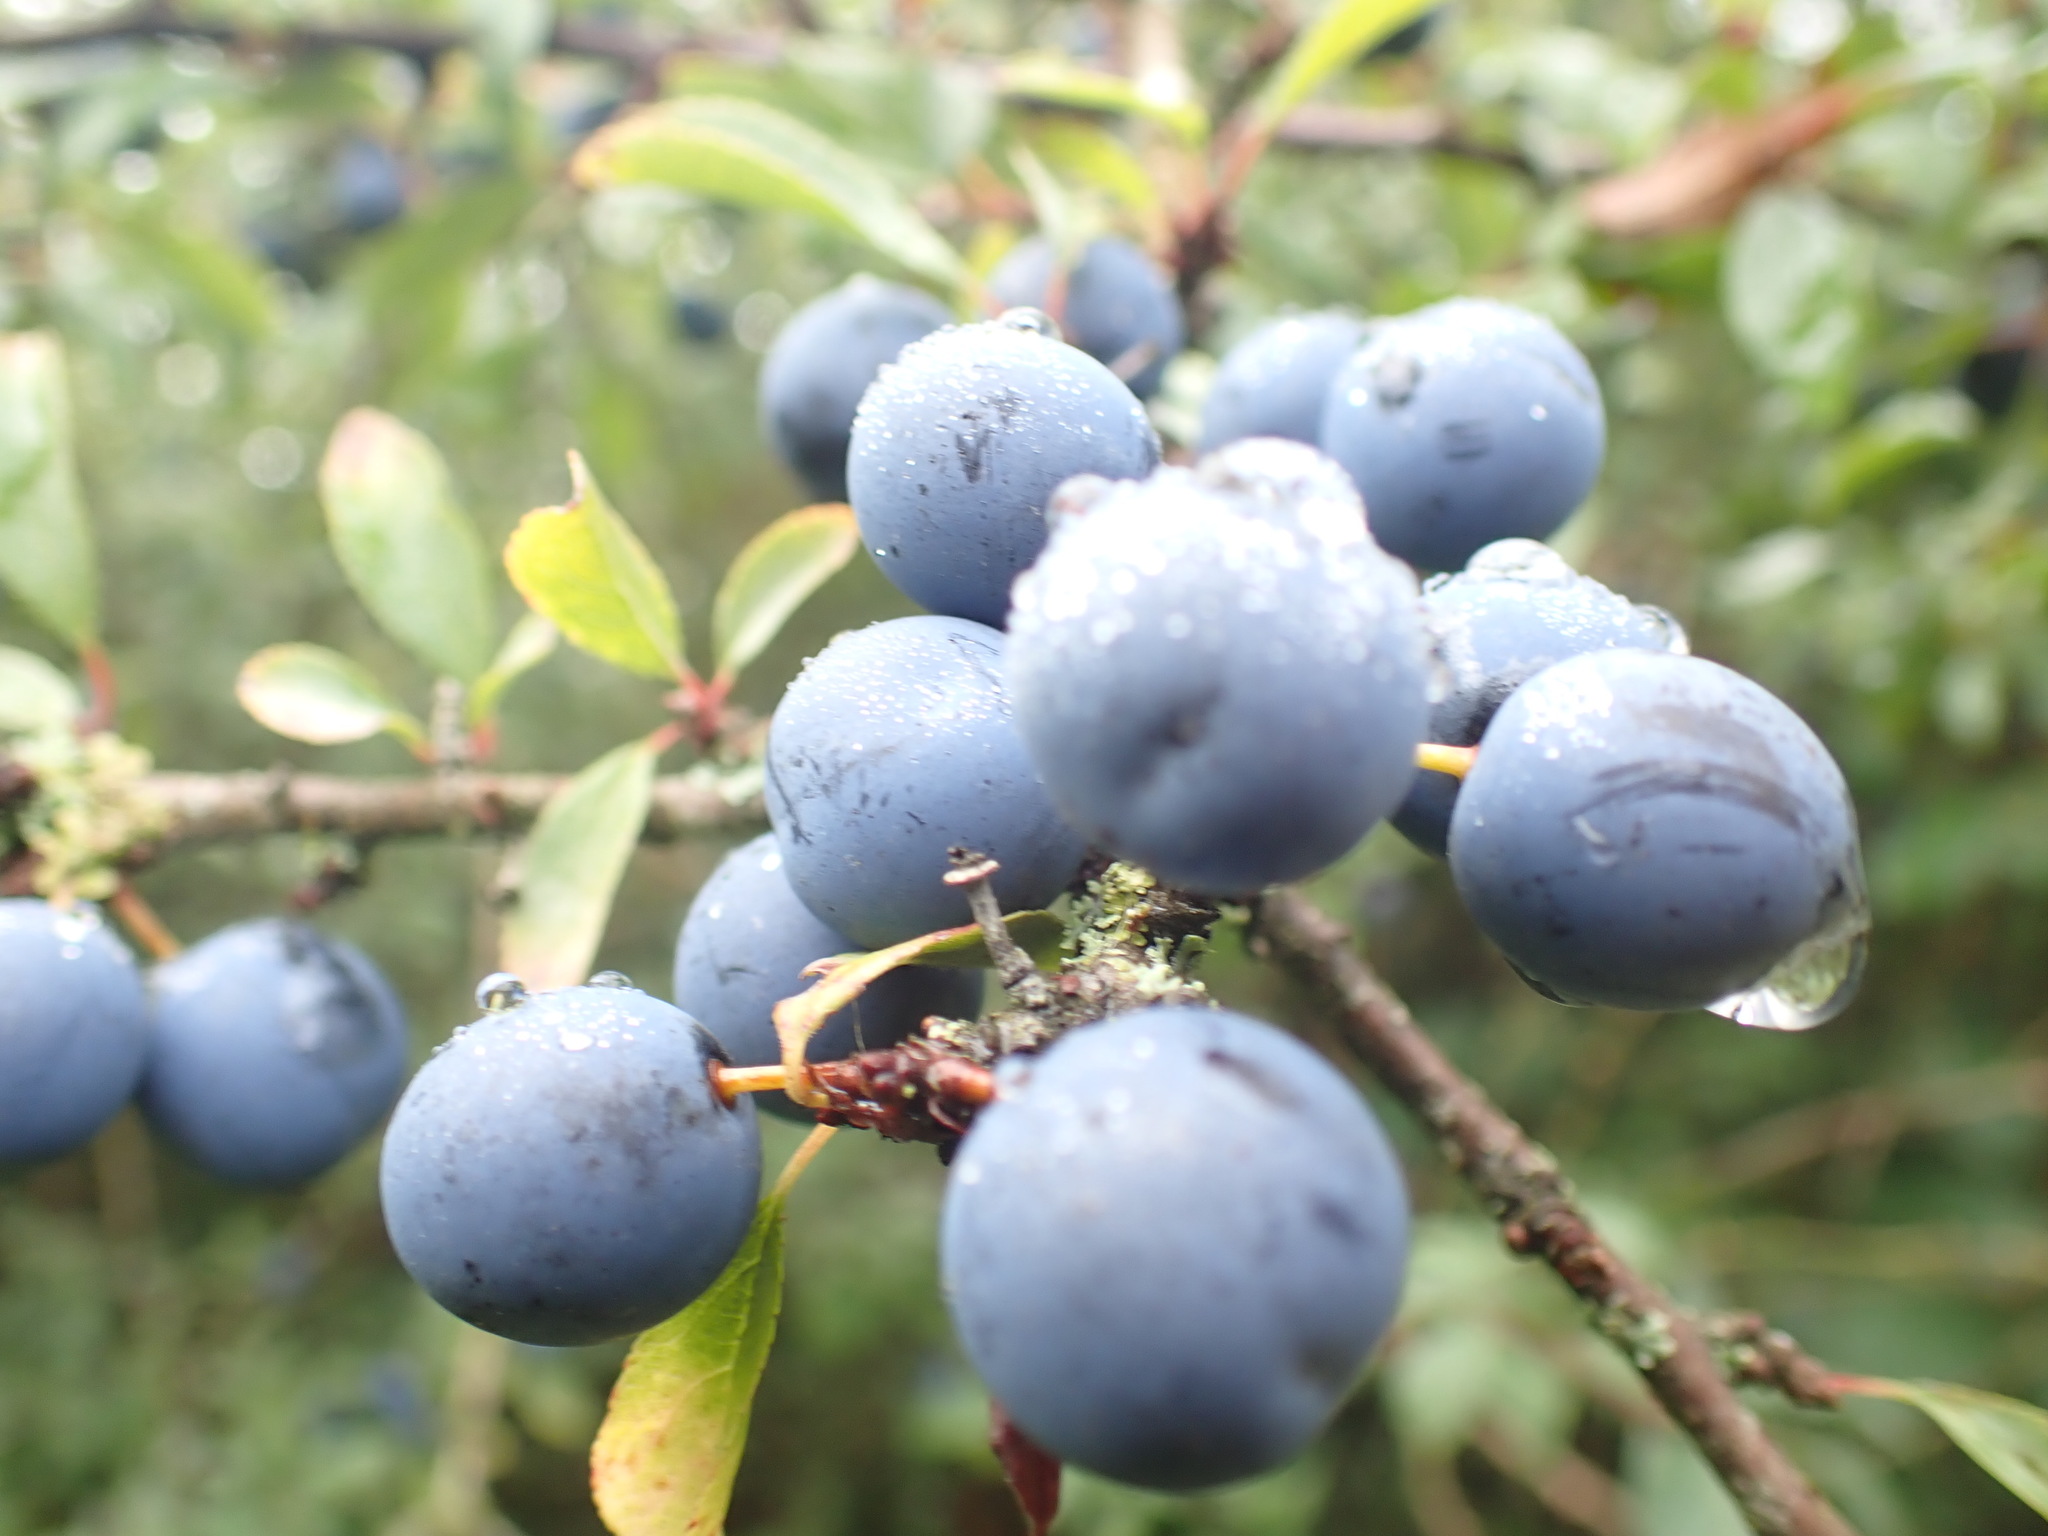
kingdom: Plantae
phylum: Tracheophyta
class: Magnoliopsida
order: Rosales
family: Rosaceae
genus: Prunus
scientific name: Prunus spinosa
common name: Blackthorn
